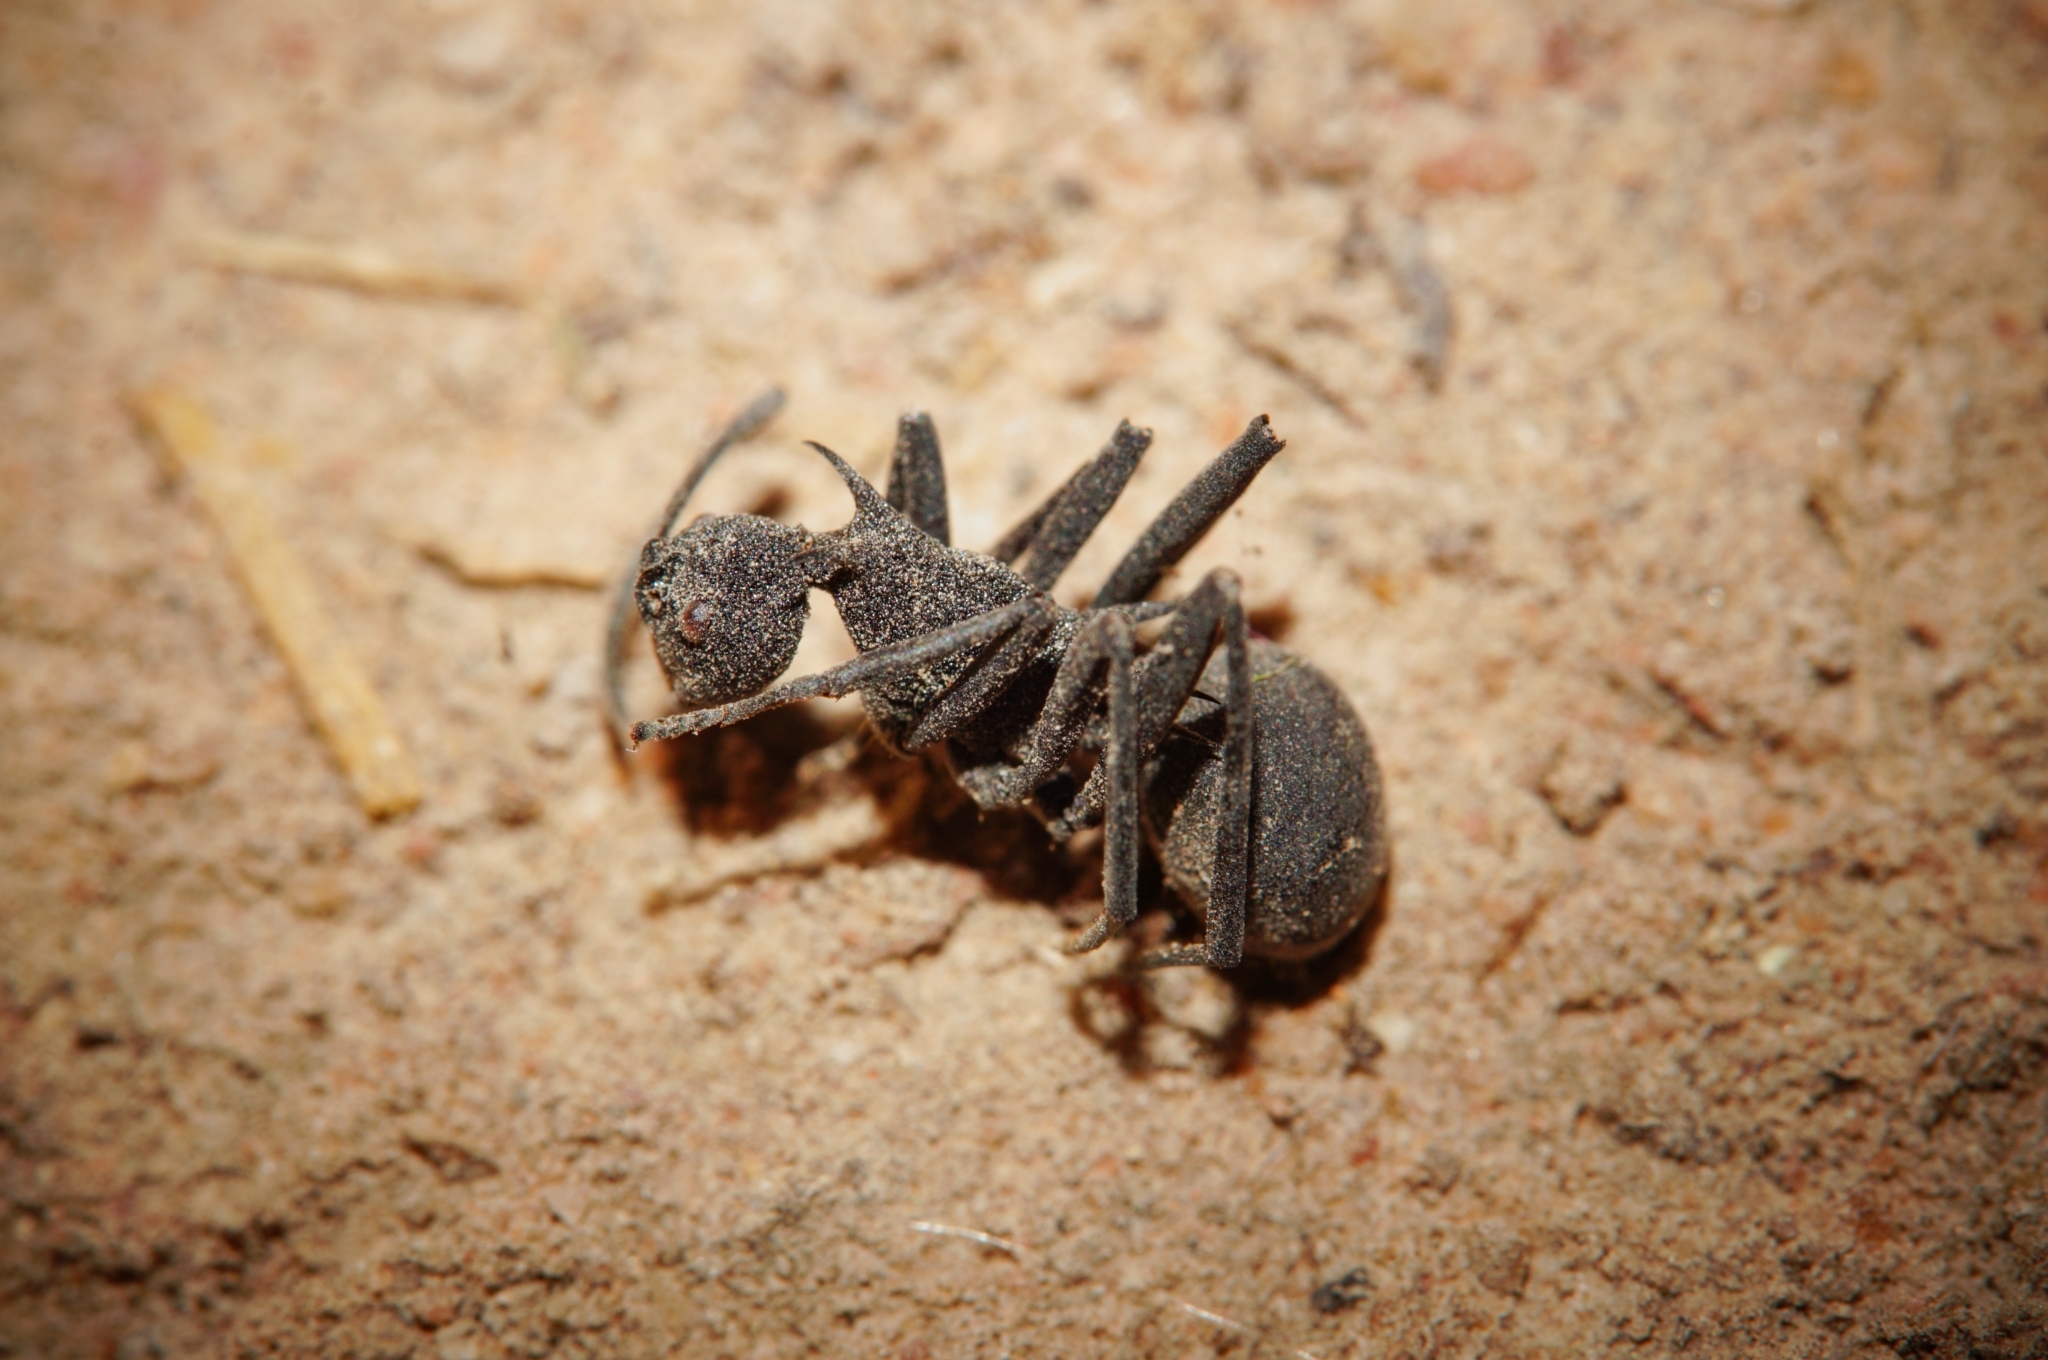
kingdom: Animalia
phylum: Arthropoda
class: Insecta
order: Hymenoptera
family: Formicidae
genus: Polyrhachis
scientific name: Polyrhachis armata
